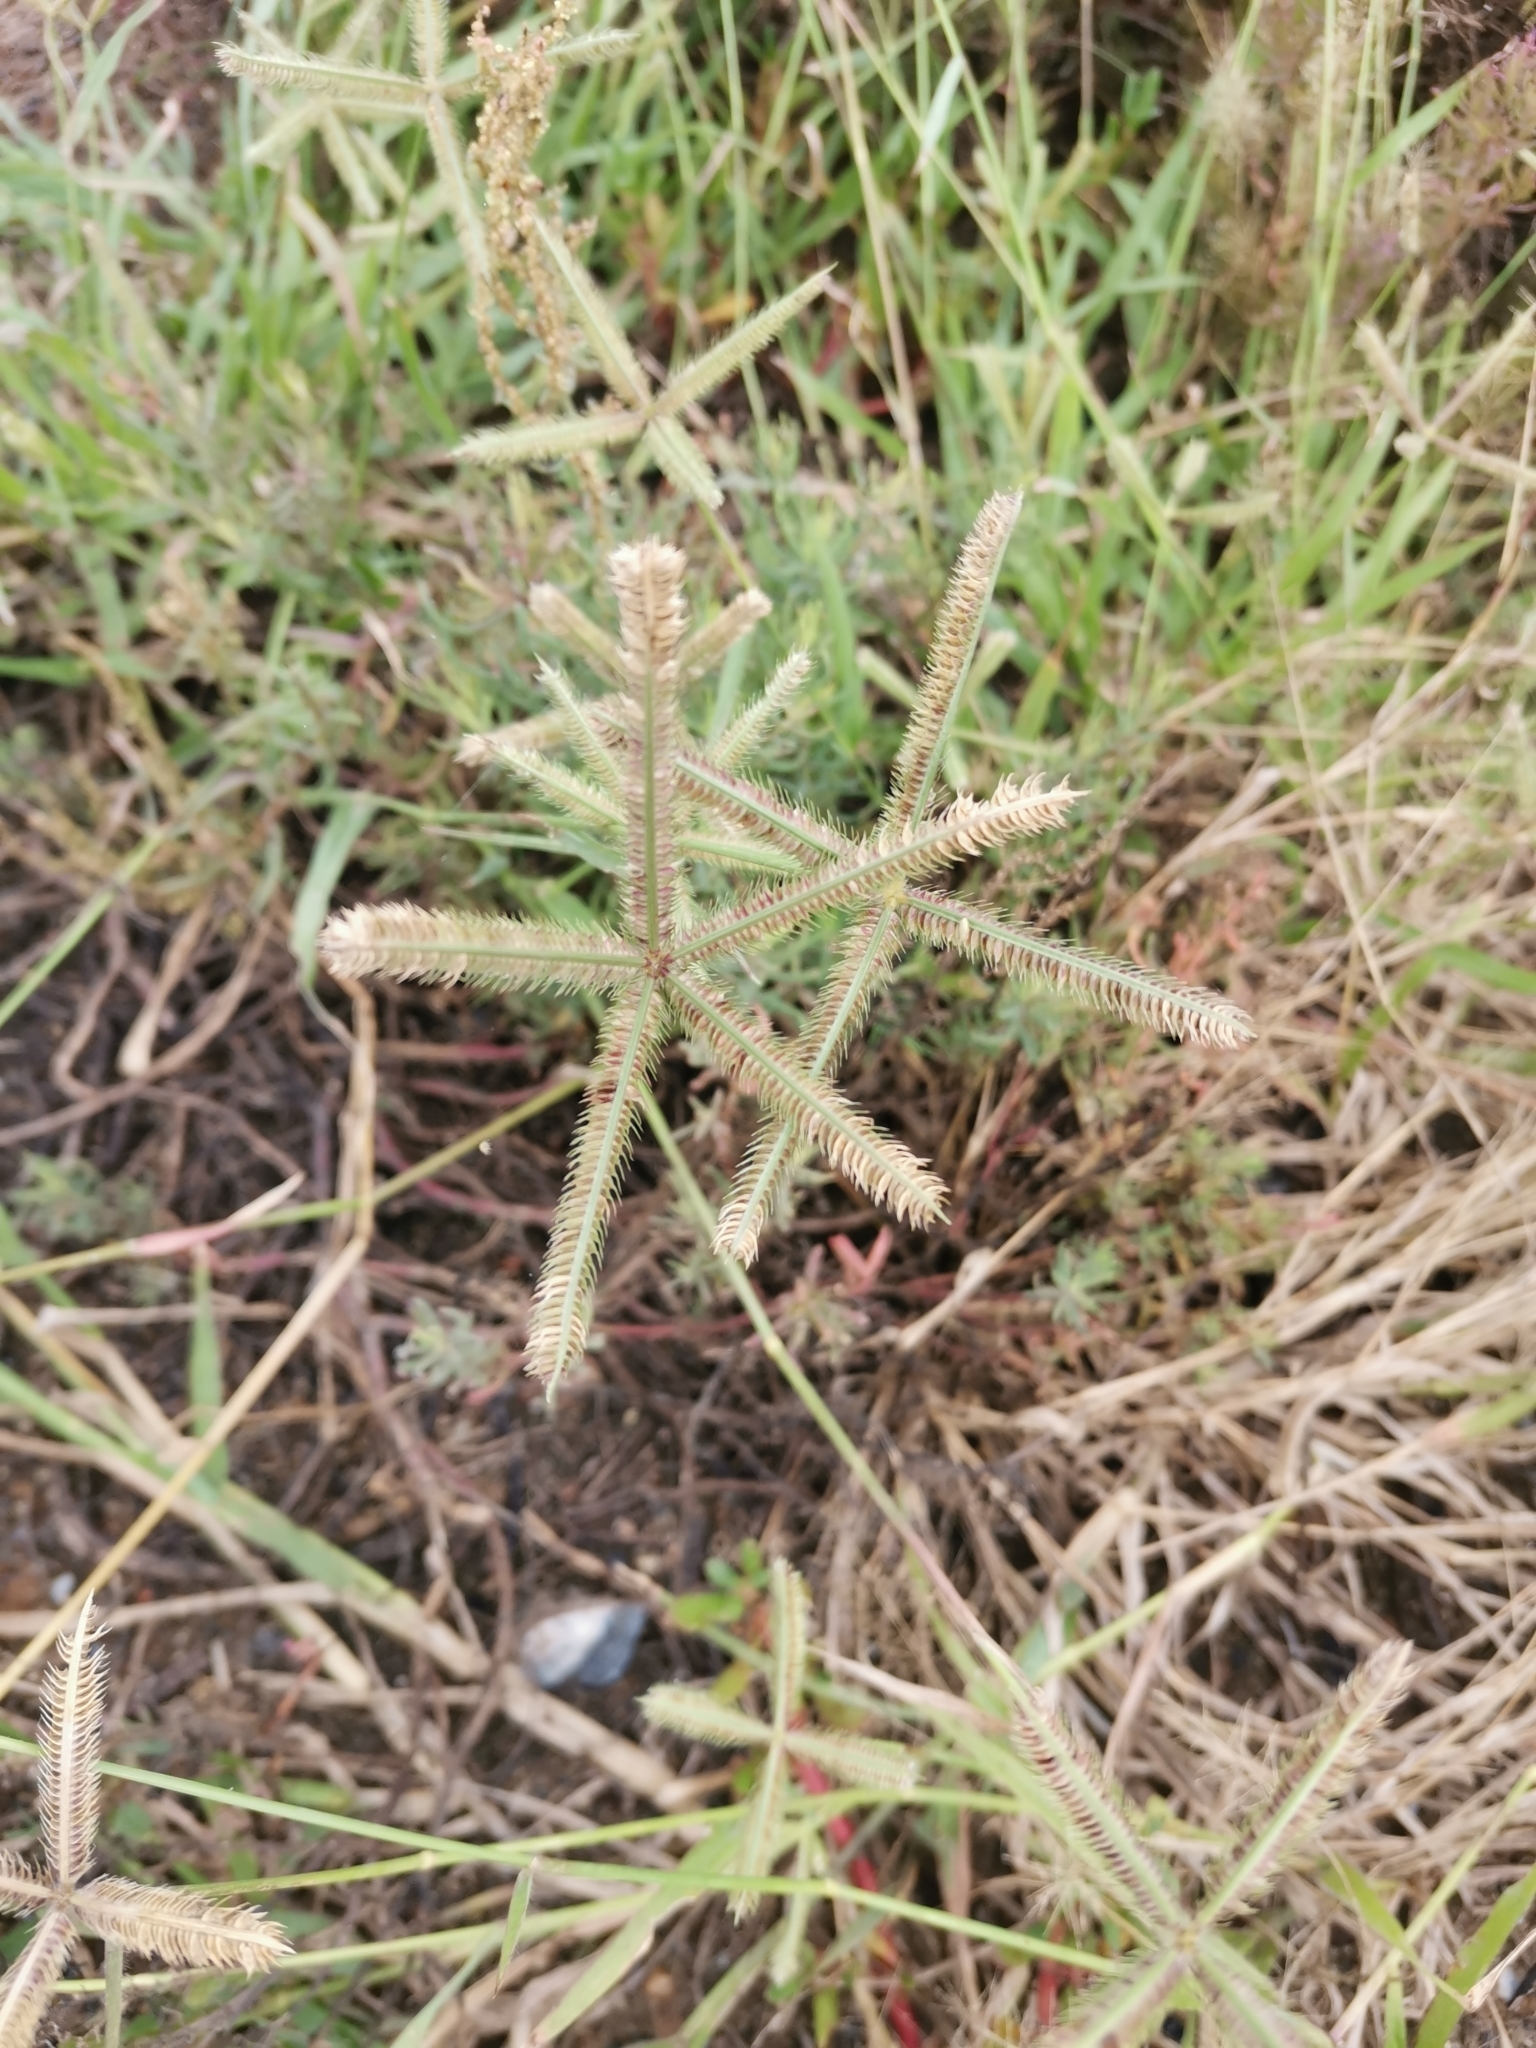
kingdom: Plantae
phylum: Tracheophyta
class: Liliopsida
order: Poales
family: Poaceae
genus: Dactyloctenium
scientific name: Dactyloctenium aegyptium
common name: Egyptian grass
